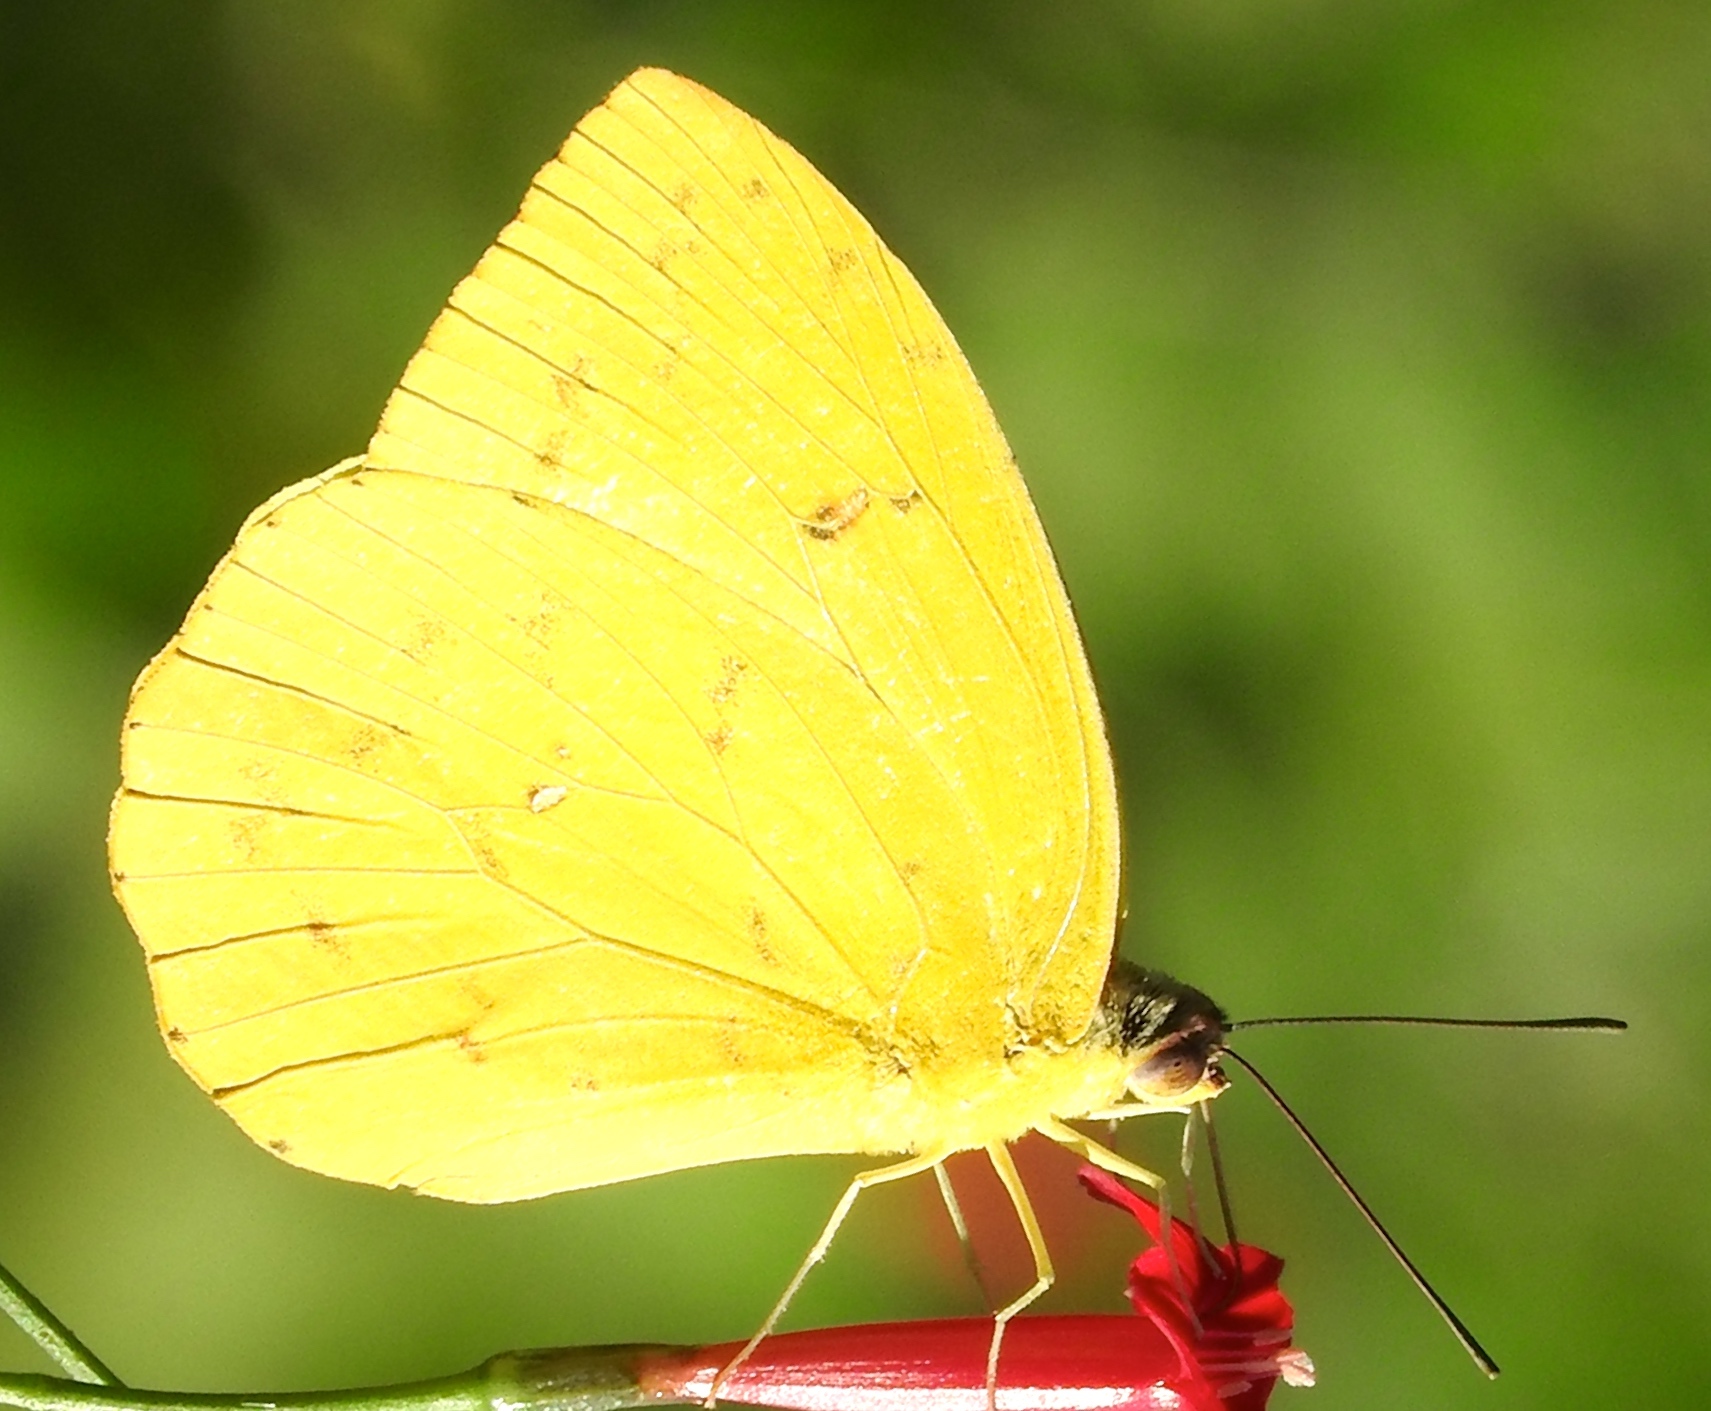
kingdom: Animalia
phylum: Arthropoda
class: Insecta
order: Lepidoptera
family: Pieridae
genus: Phoebis
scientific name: Phoebis philea
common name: Orange-barred giant sulphur
